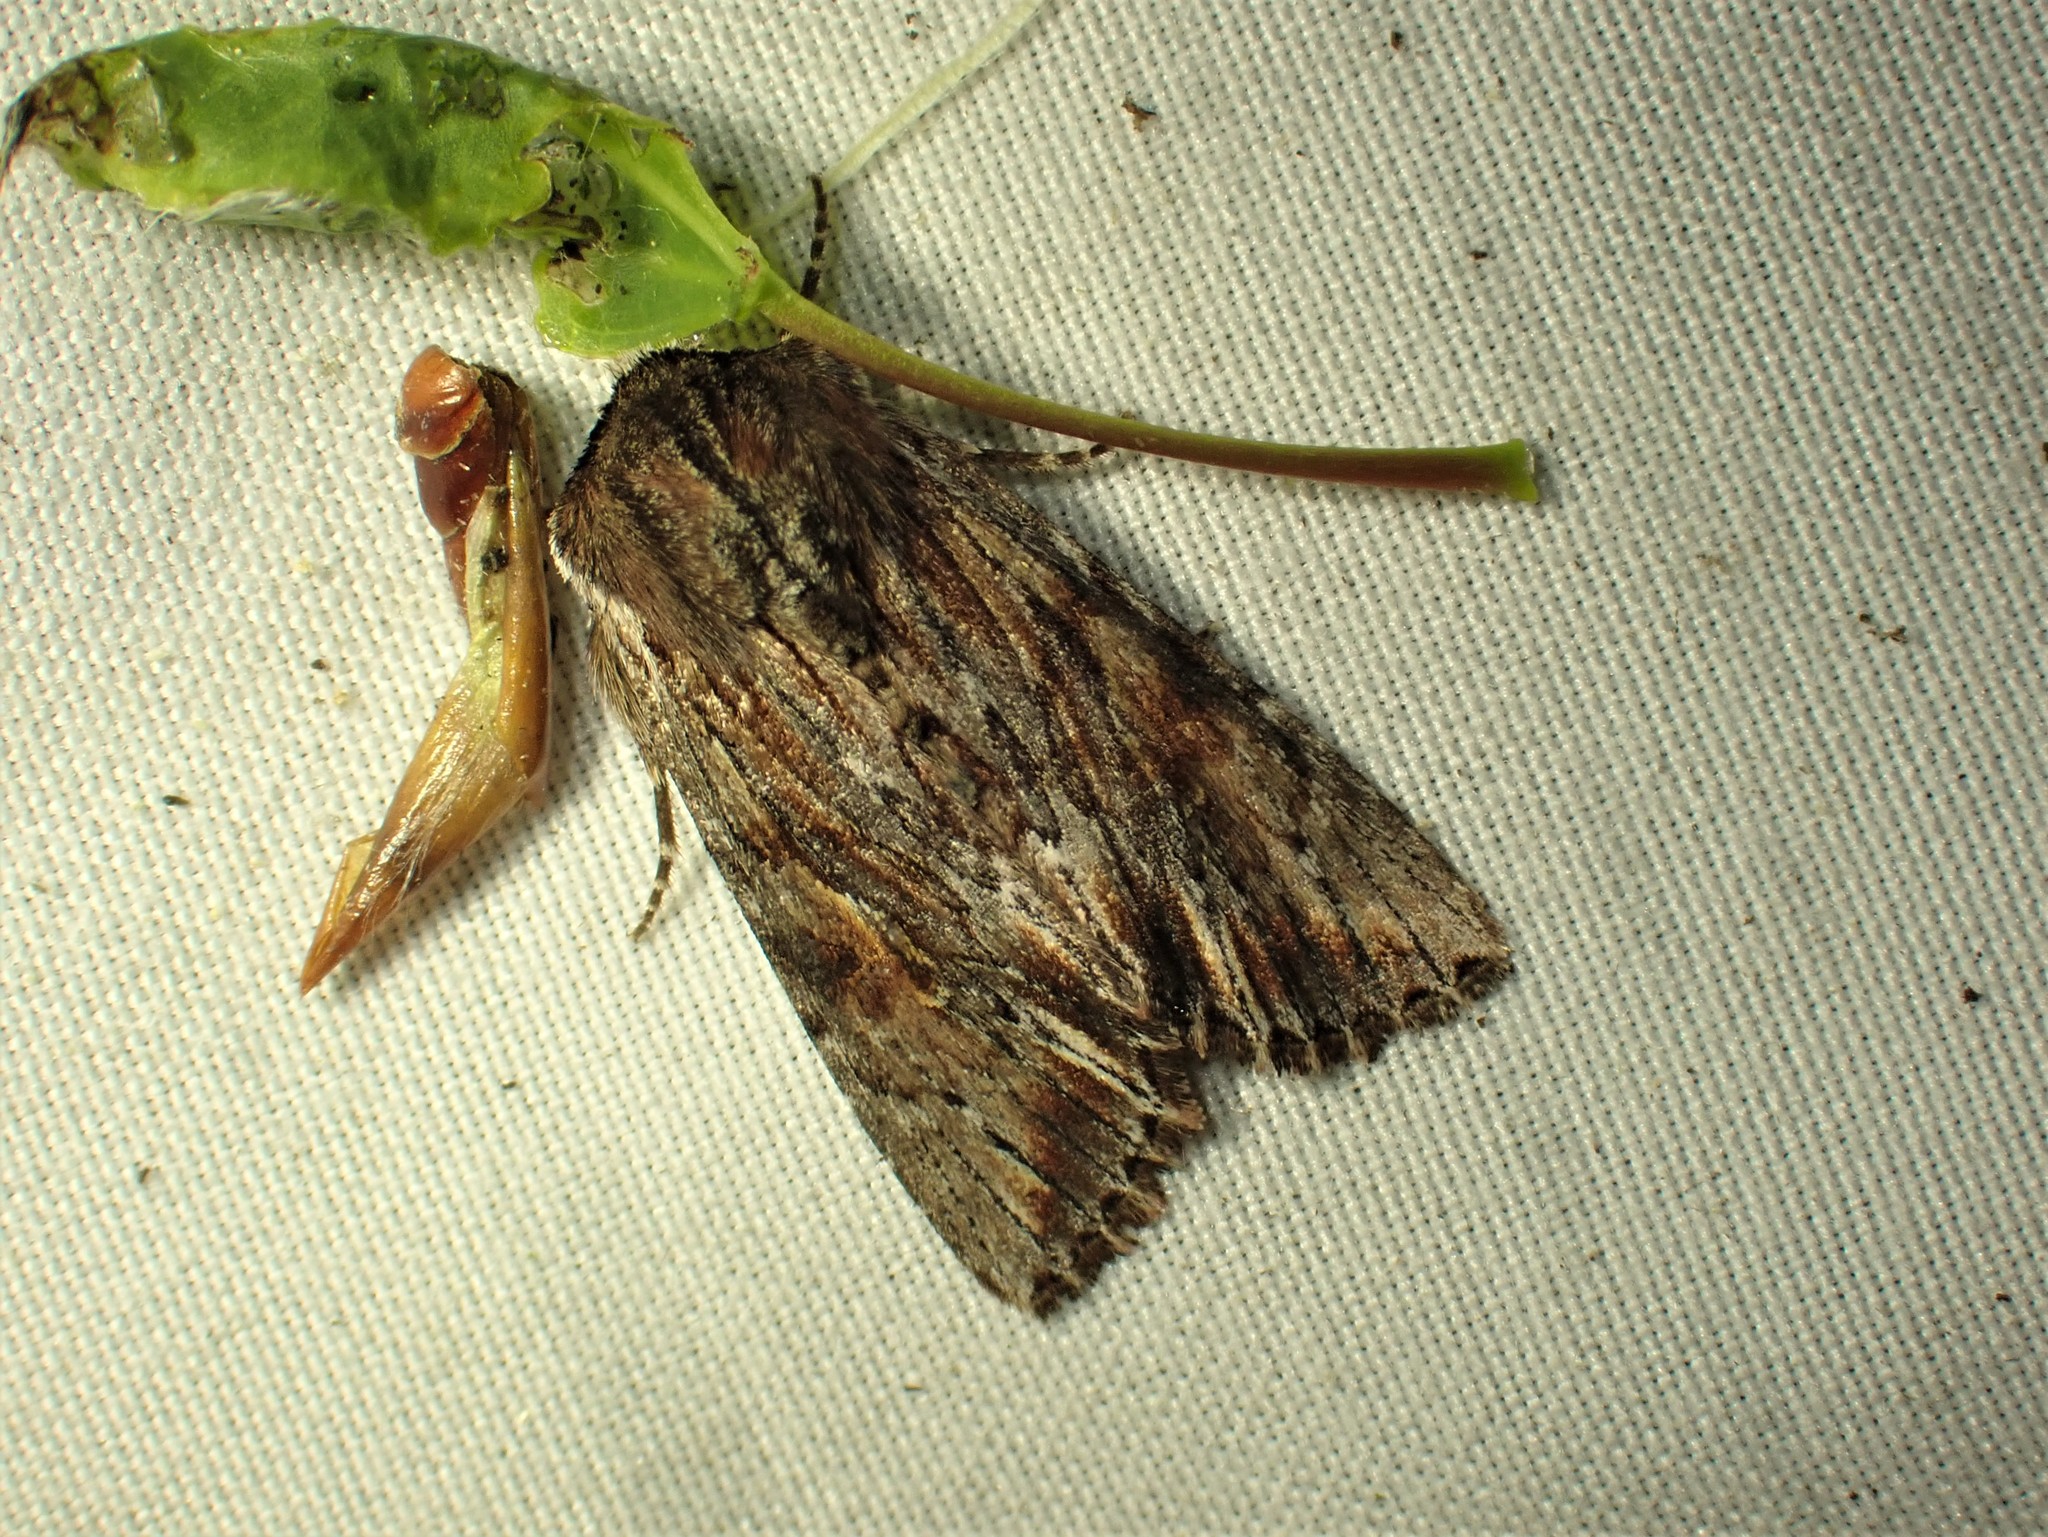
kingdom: Animalia
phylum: Arthropoda
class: Insecta
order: Lepidoptera
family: Noctuidae
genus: Achatia
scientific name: Achatia evicta
